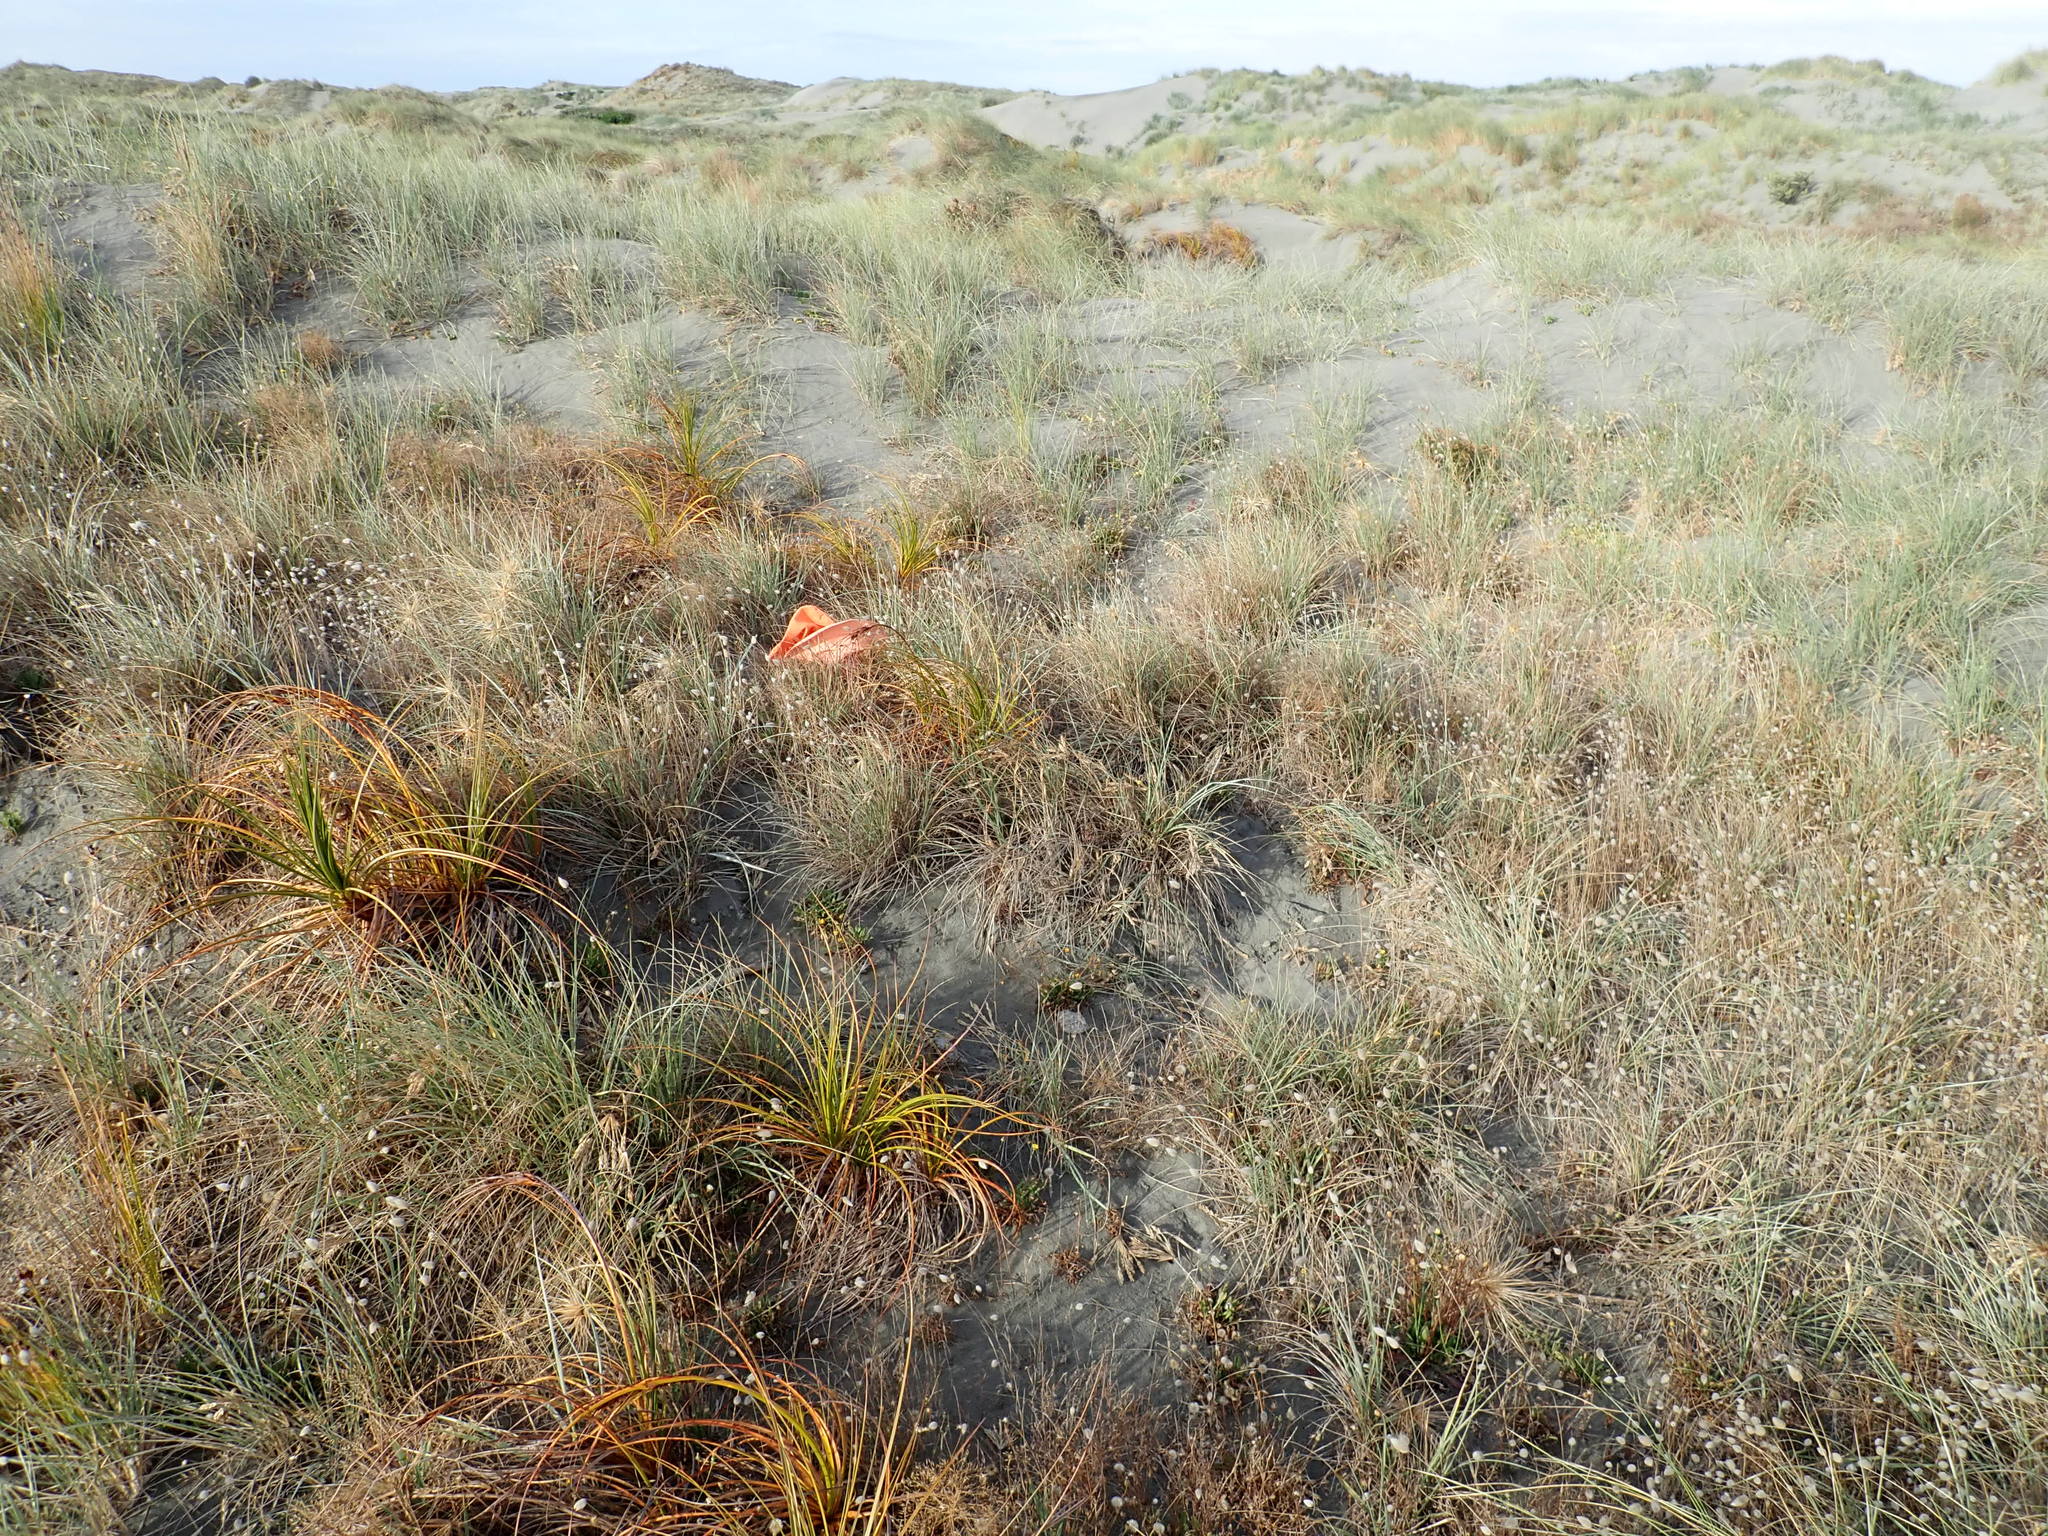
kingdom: Plantae
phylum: Tracheophyta
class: Liliopsida
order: Poales
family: Poaceae
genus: Lachnagrostis
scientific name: Lachnagrostis billardierei
